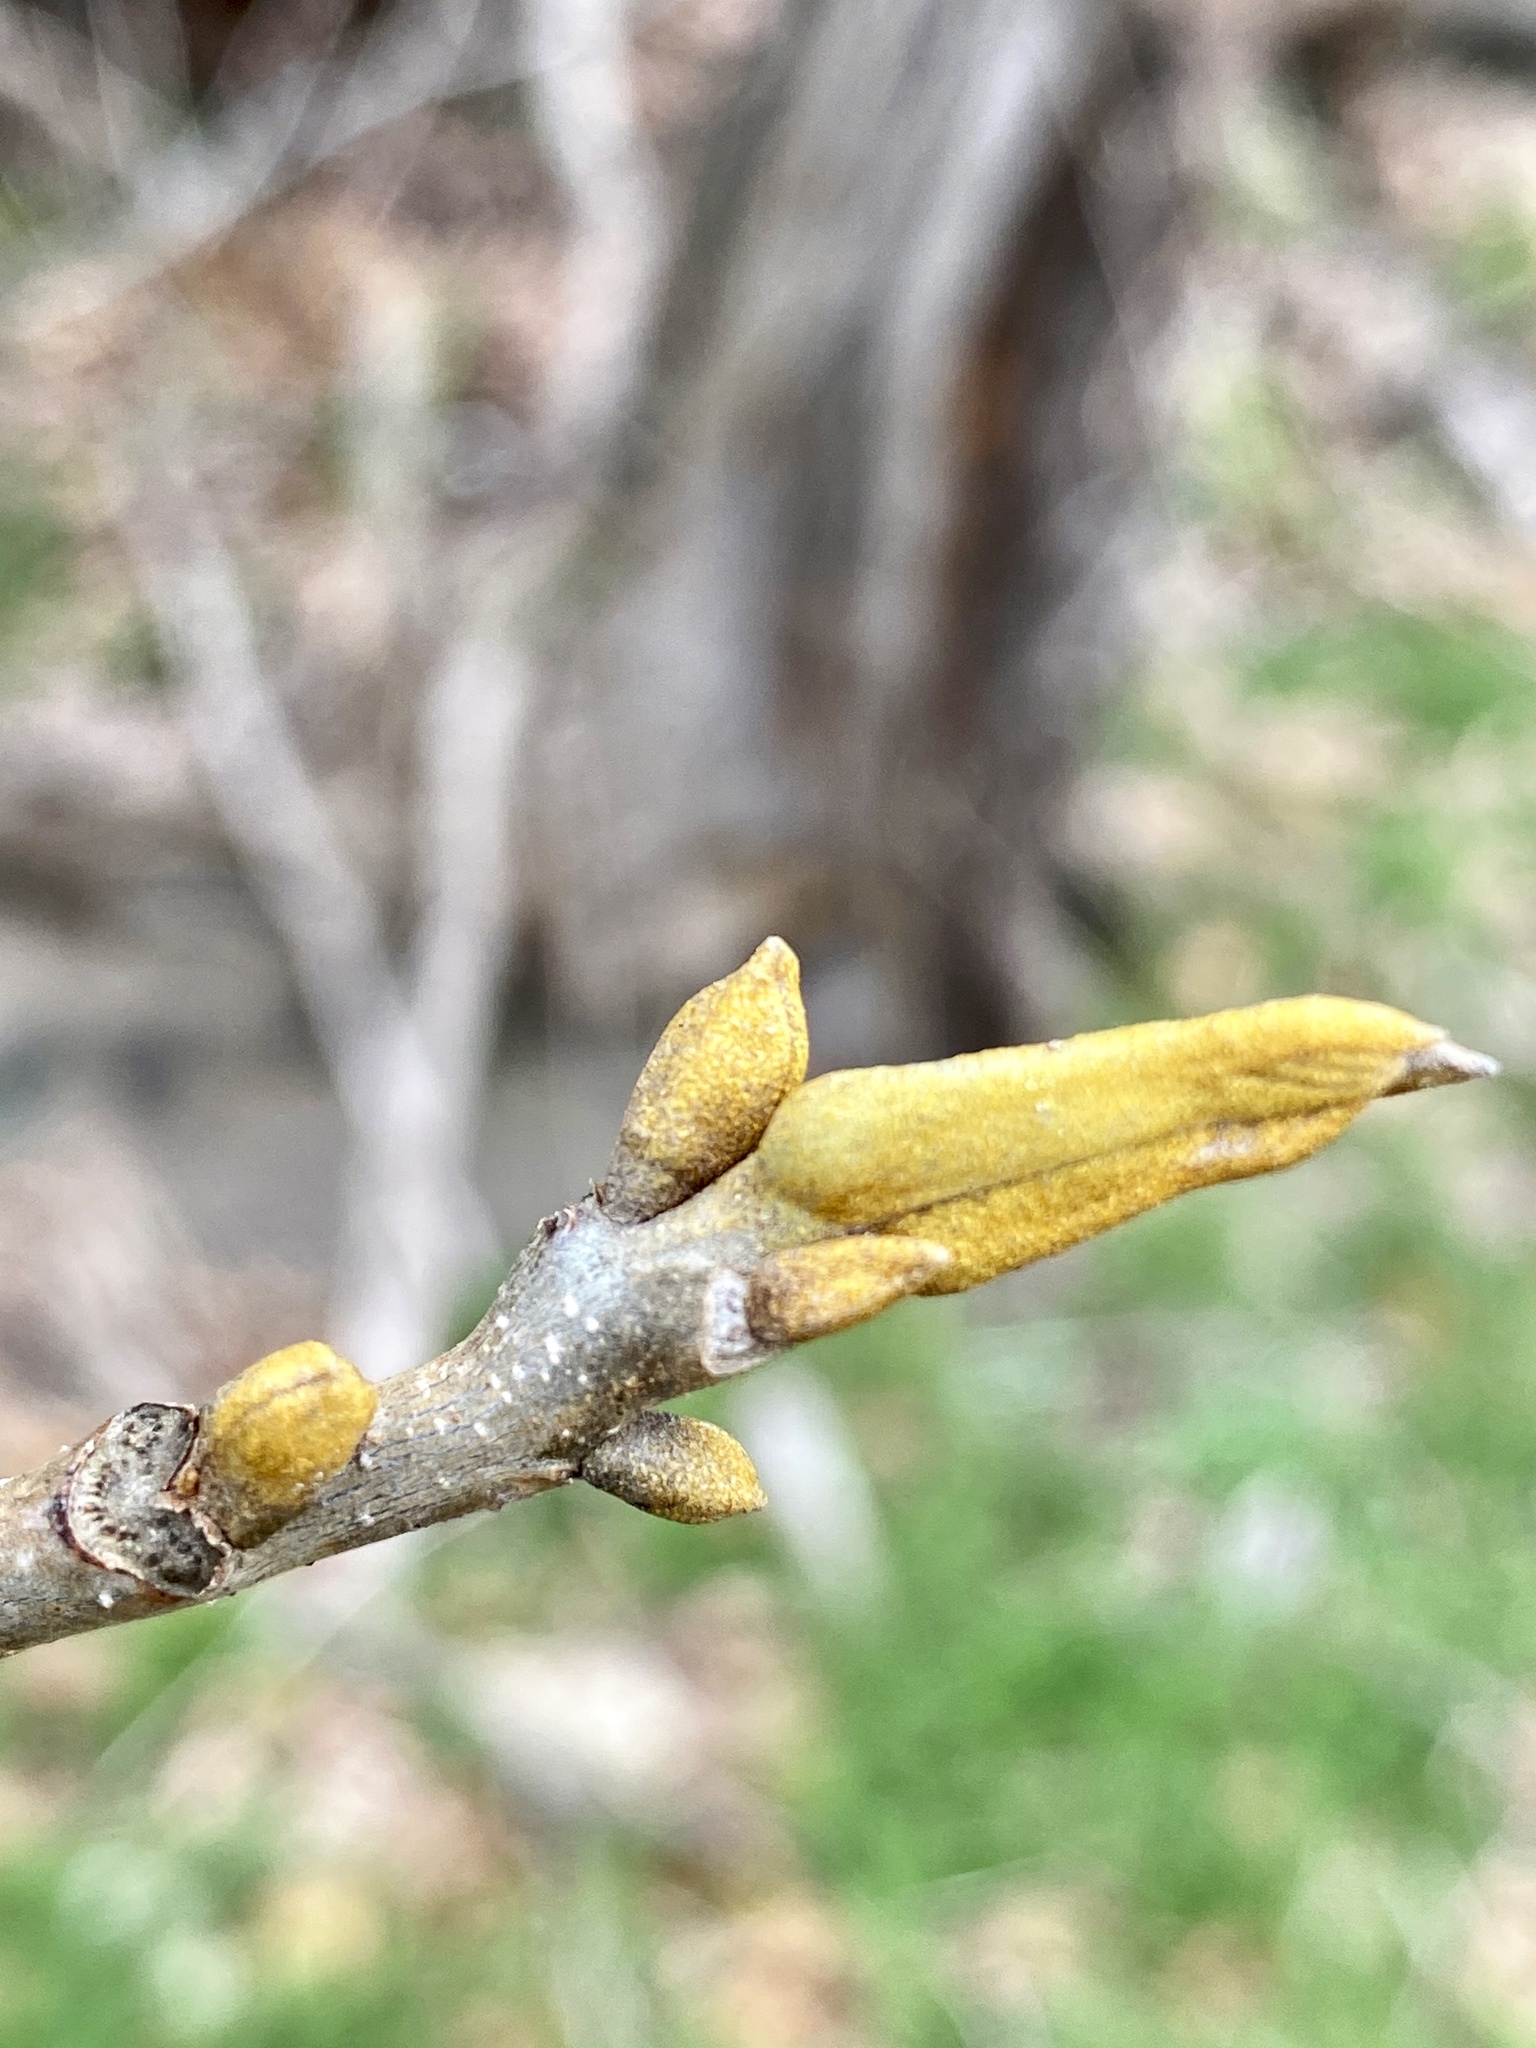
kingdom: Plantae
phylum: Tracheophyta
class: Magnoliopsida
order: Fagales
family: Juglandaceae
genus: Carya
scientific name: Carya cordiformis
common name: Bitternut hickory
